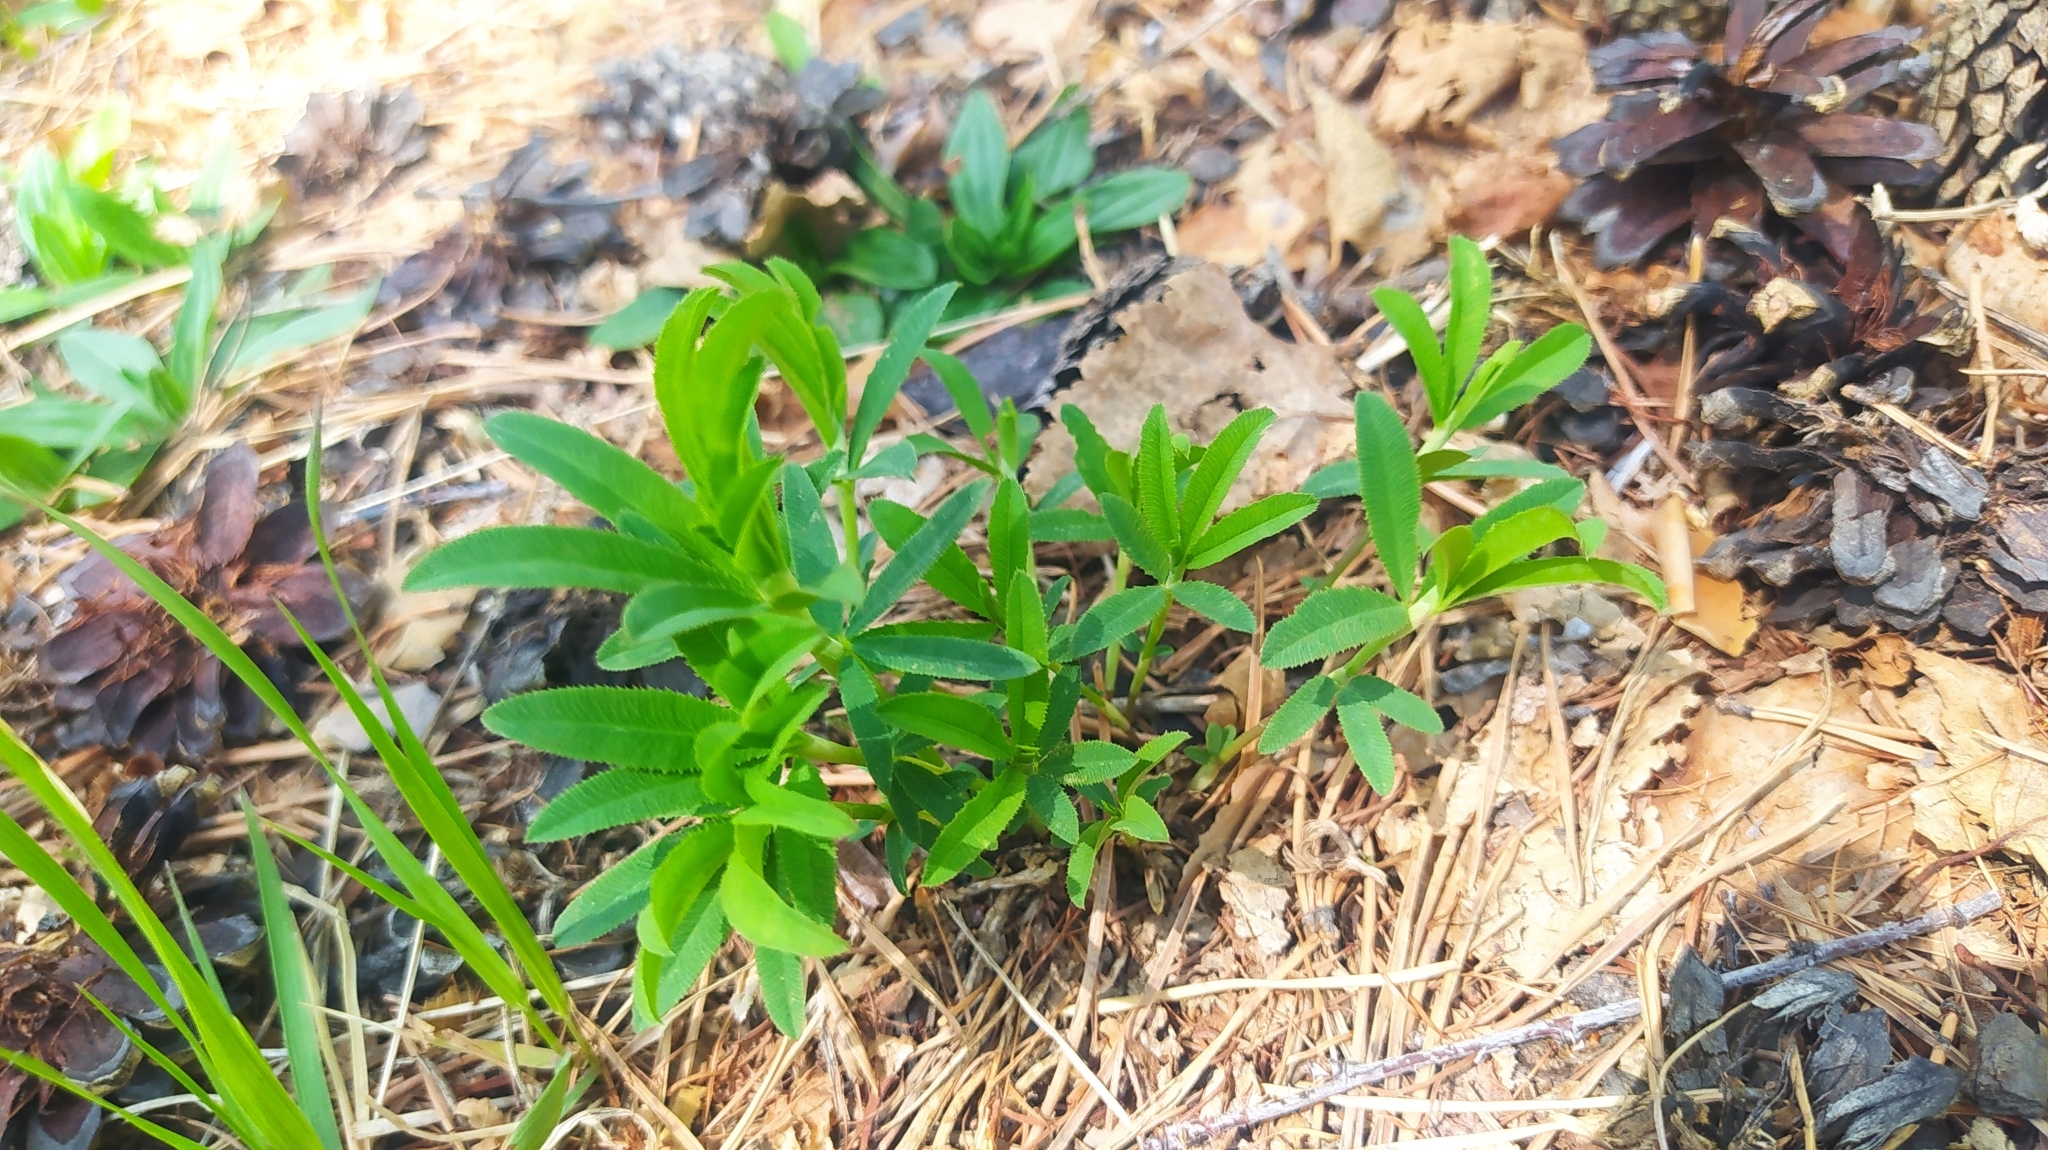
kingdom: Plantae
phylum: Tracheophyta
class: Magnoliopsida
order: Fabales
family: Fabaceae
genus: Trifolium
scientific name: Trifolium lupinaster
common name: Lupine clover
